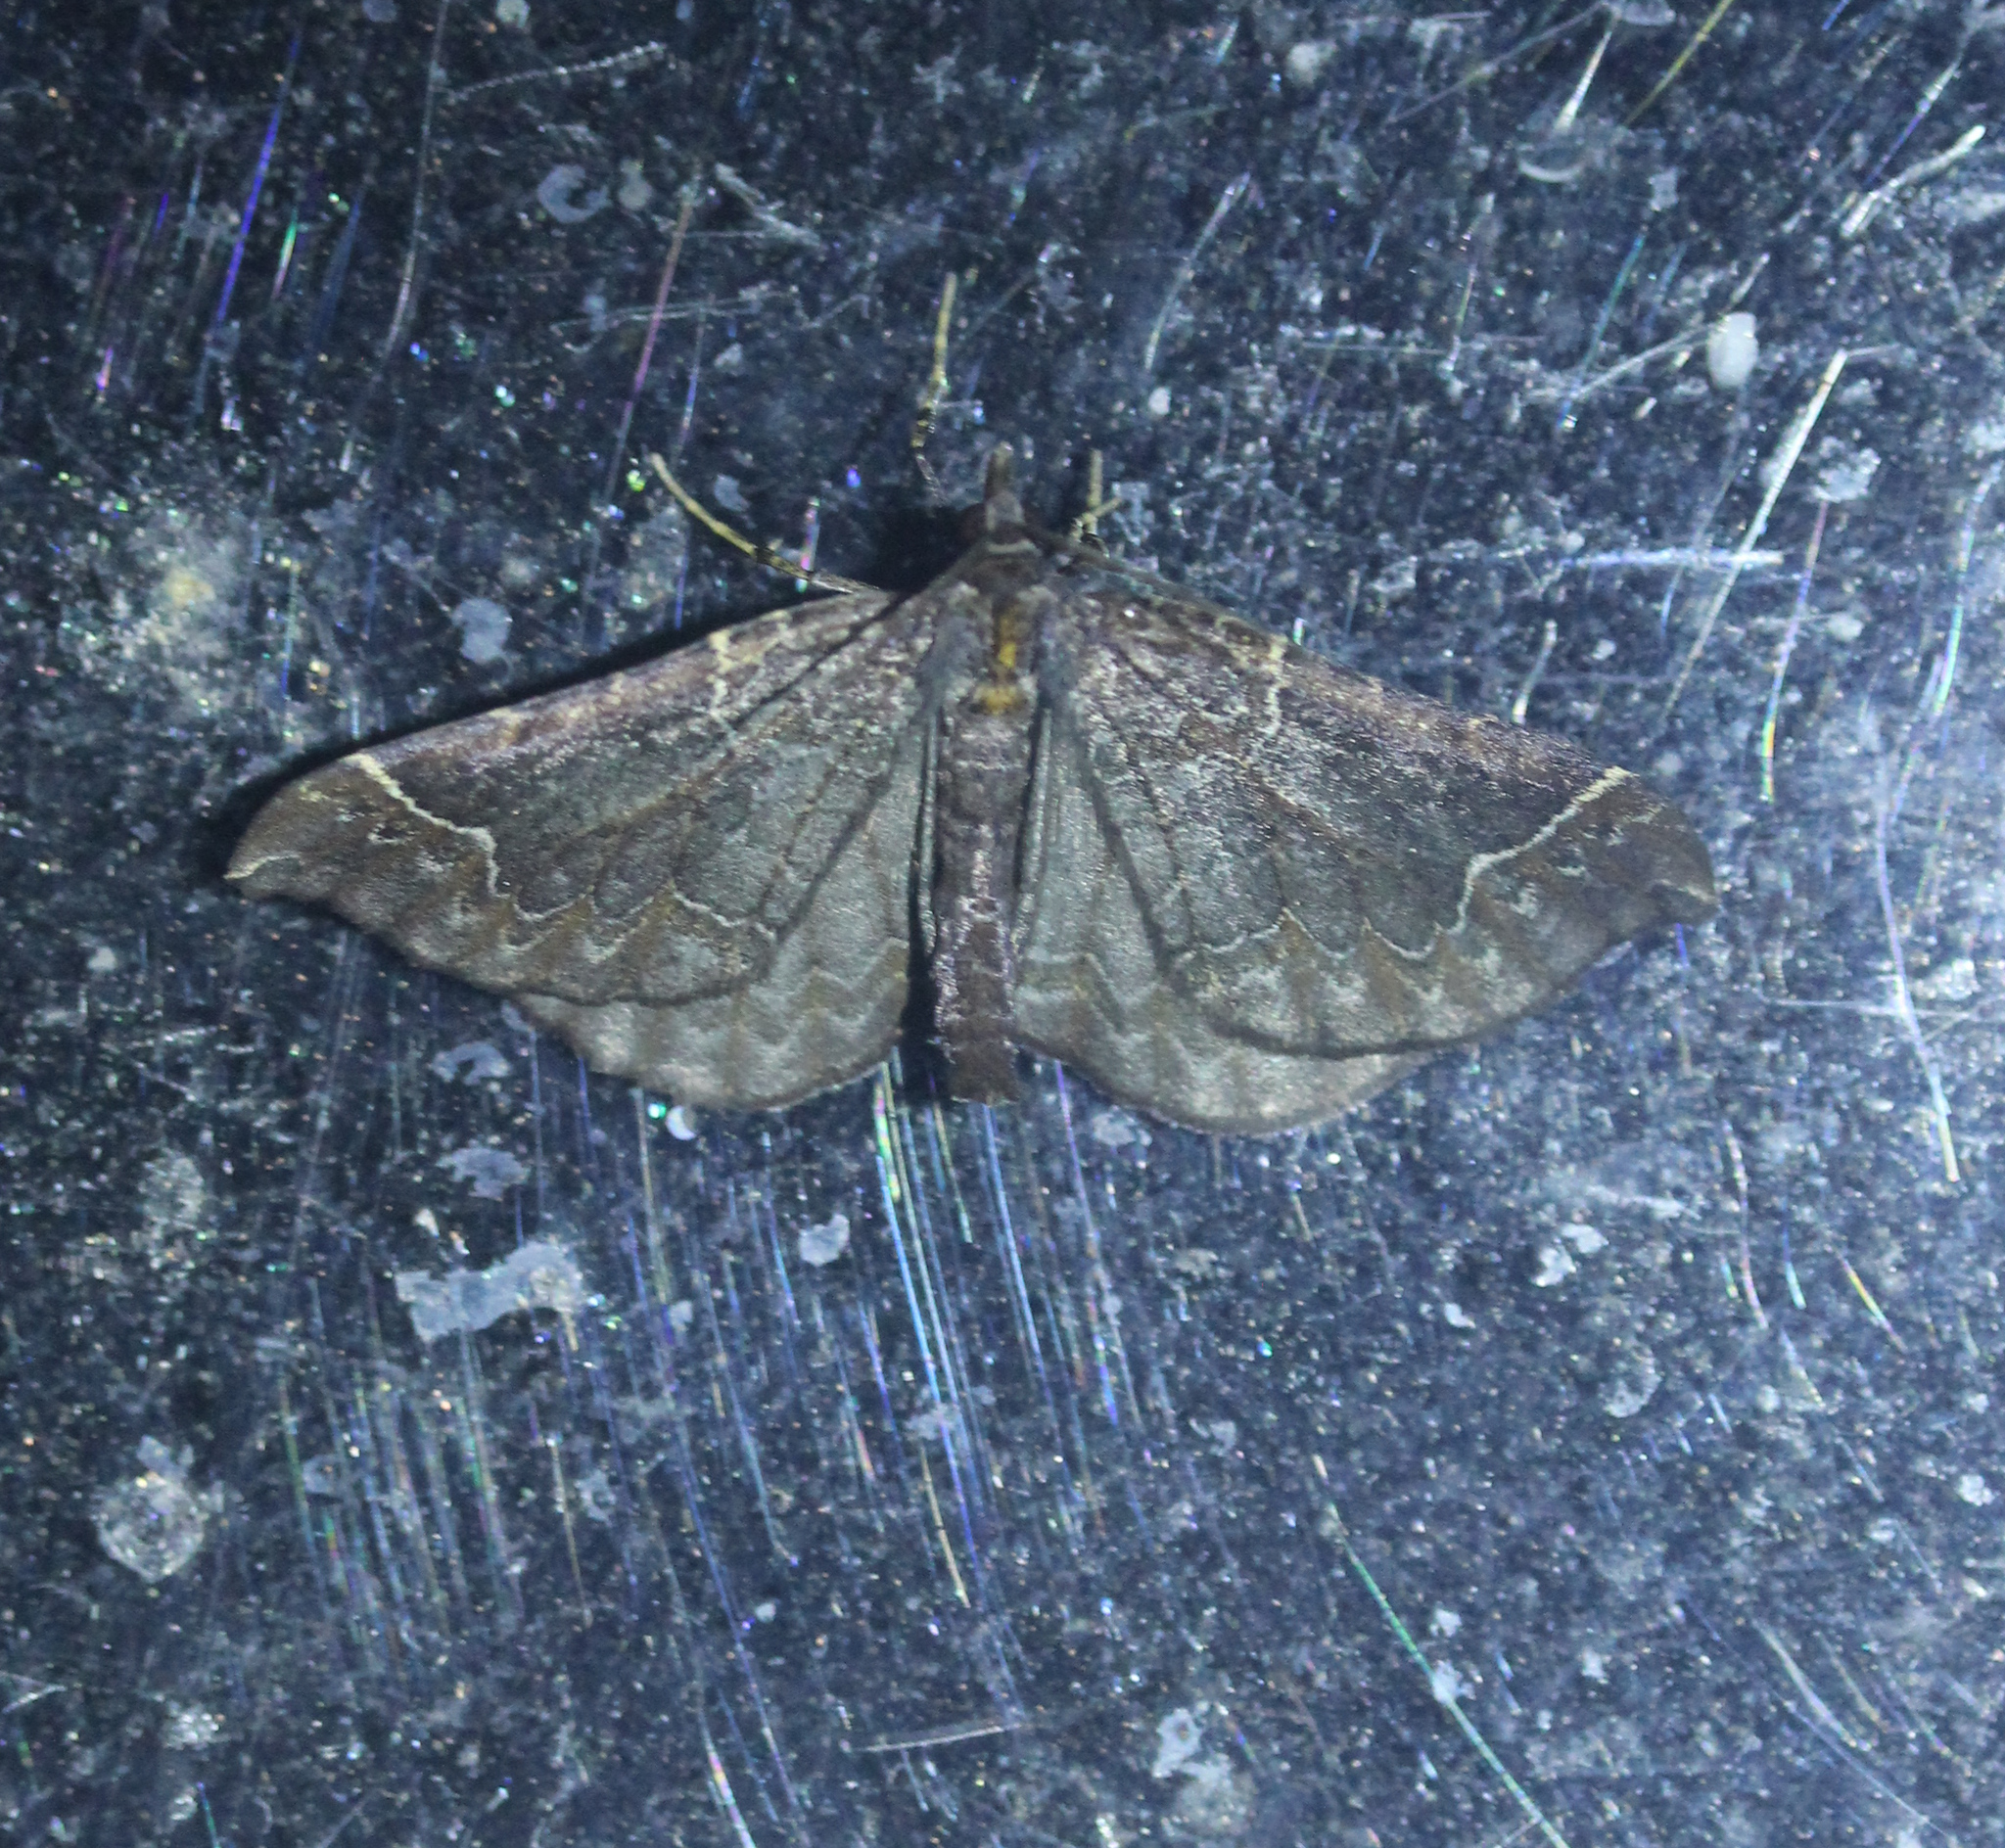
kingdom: Animalia
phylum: Arthropoda
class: Insecta
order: Lepidoptera
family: Geometridae
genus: Eulithis
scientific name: Eulithis flavibrunneata
